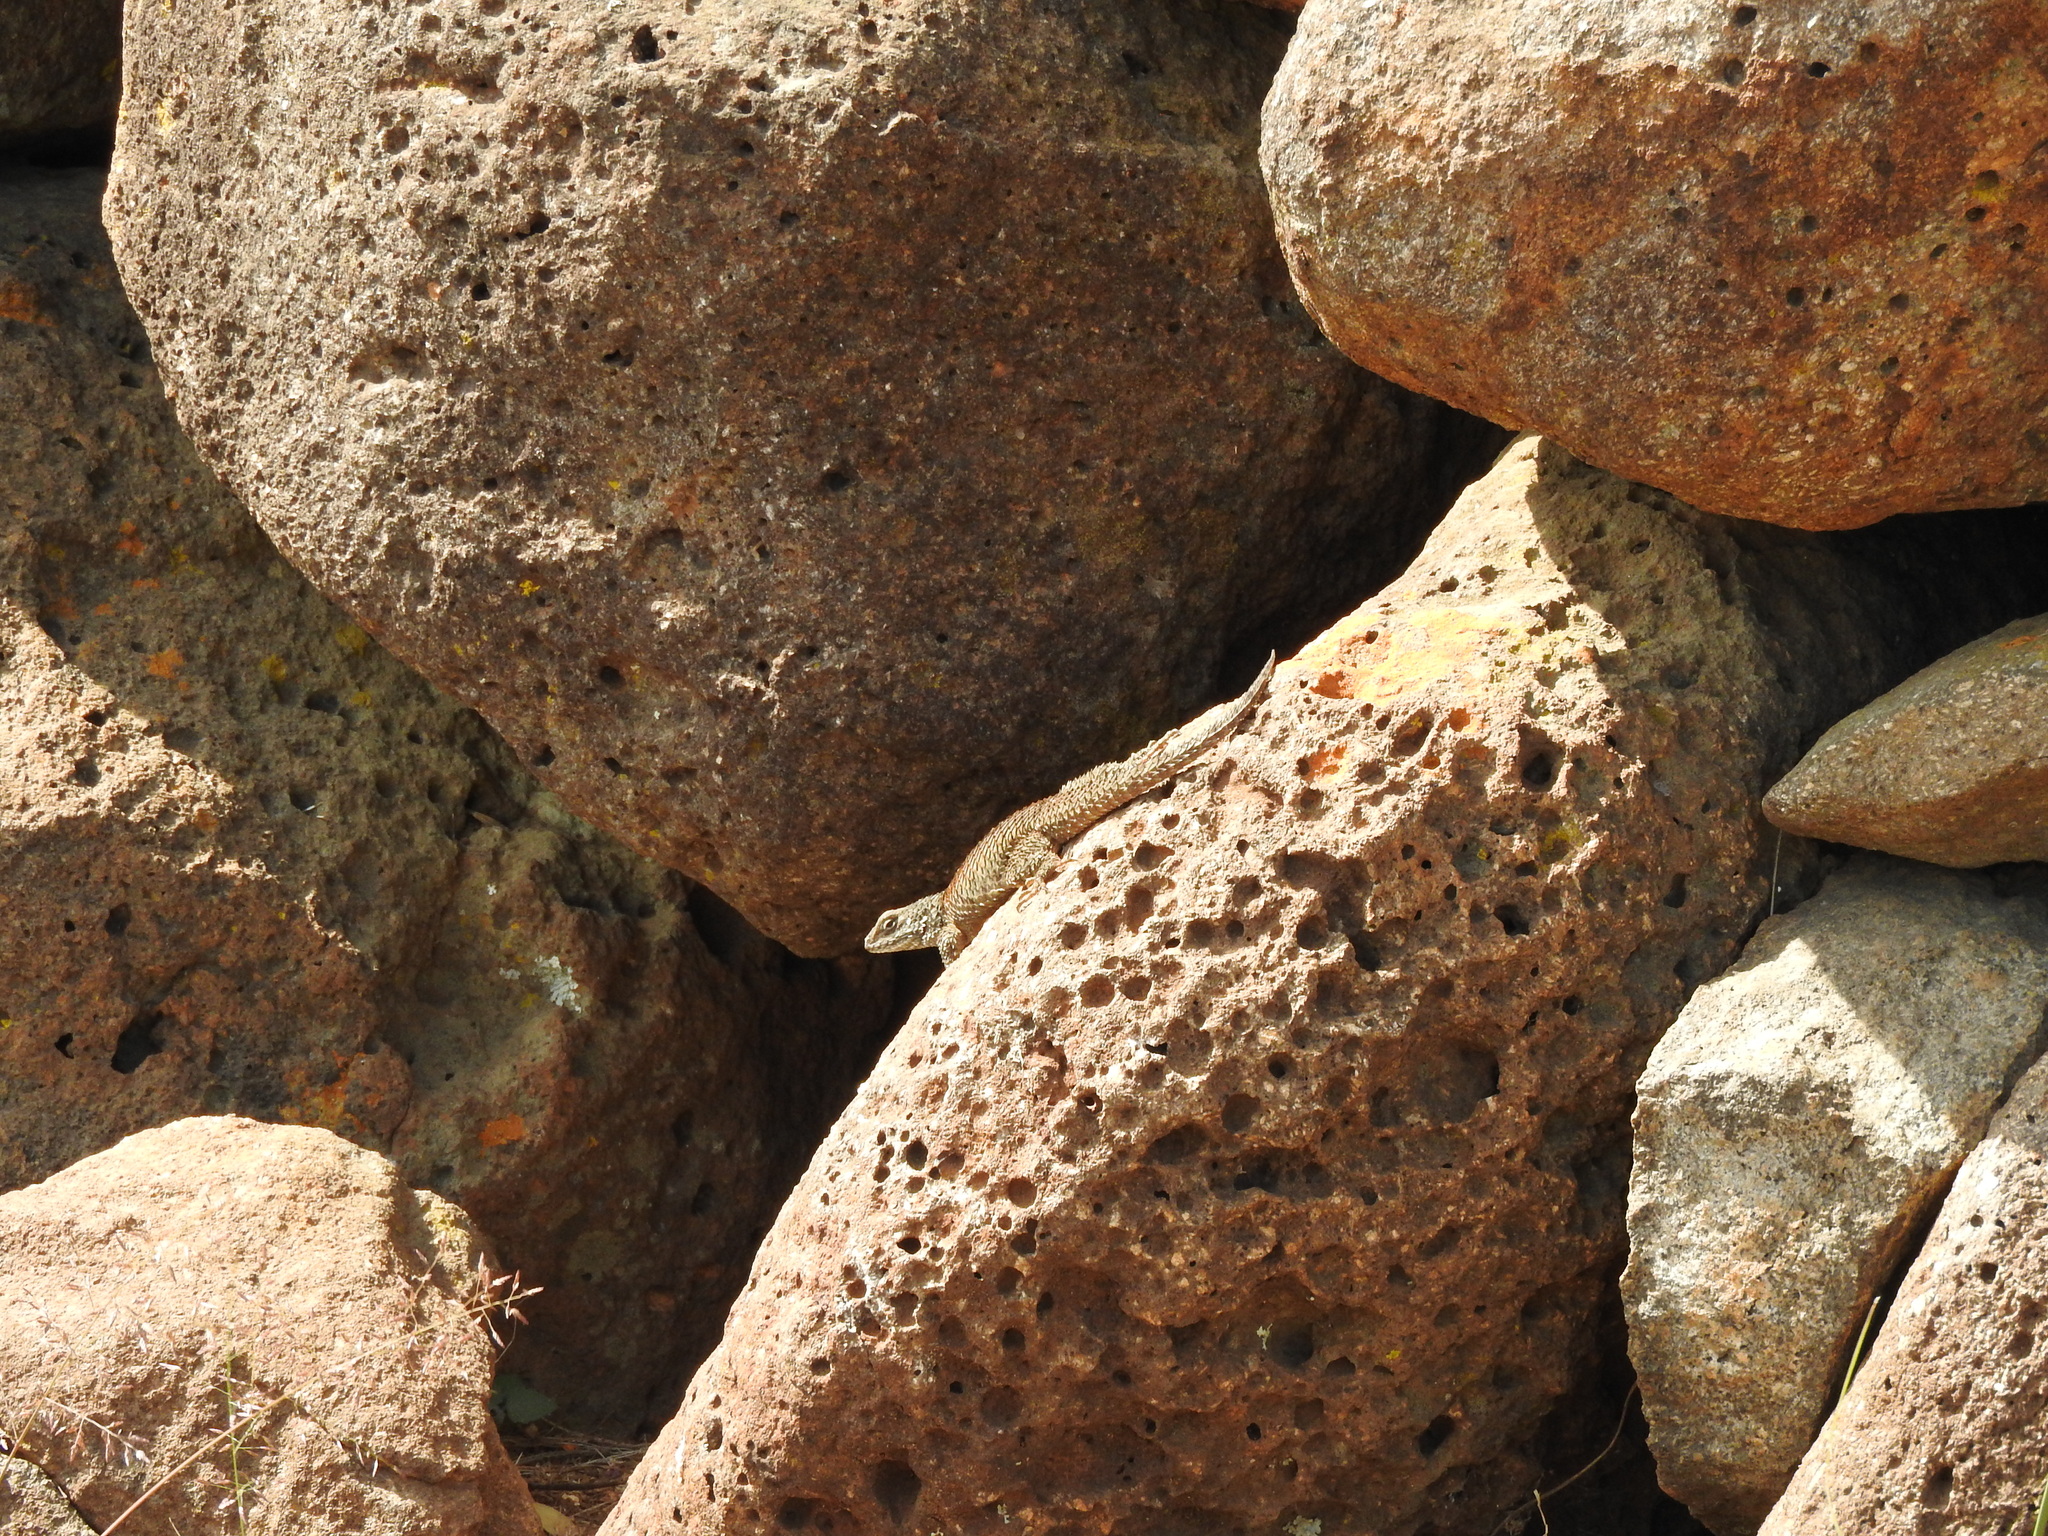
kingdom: Animalia
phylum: Chordata
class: Squamata
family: Phrynosomatidae
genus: Sceloporus
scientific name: Sceloporus torquatus
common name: Central plateau torquate lizard [melanogaster]
